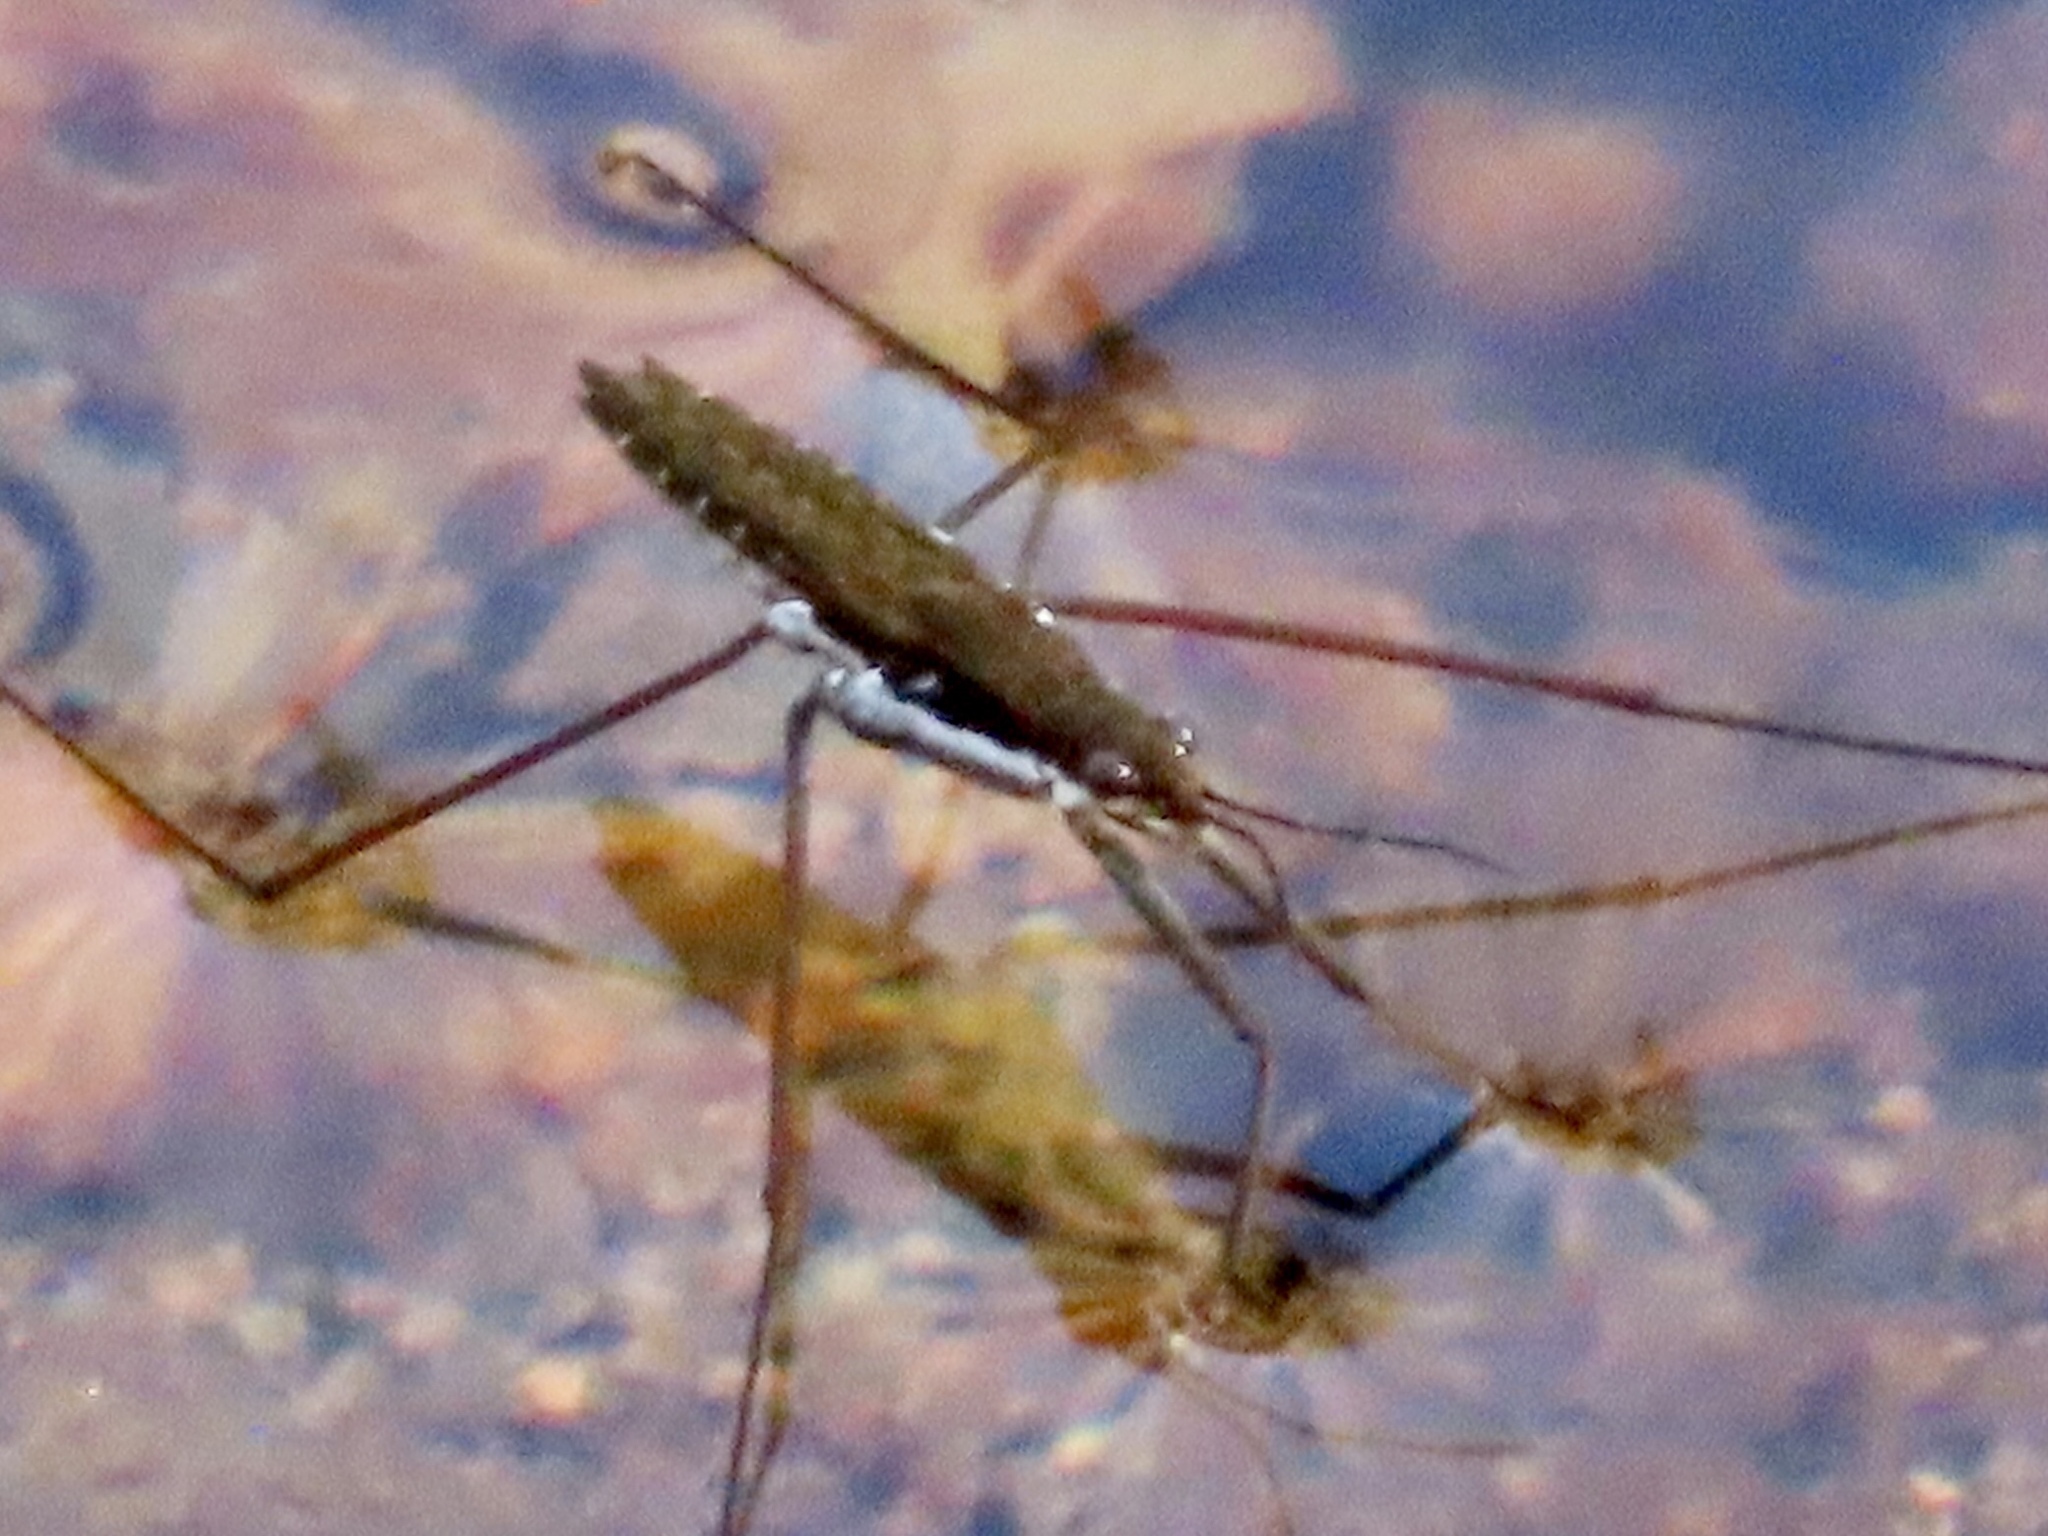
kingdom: Animalia
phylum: Arthropoda
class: Insecta
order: Hemiptera
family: Gerridae
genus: Aquarius
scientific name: Aquarius
